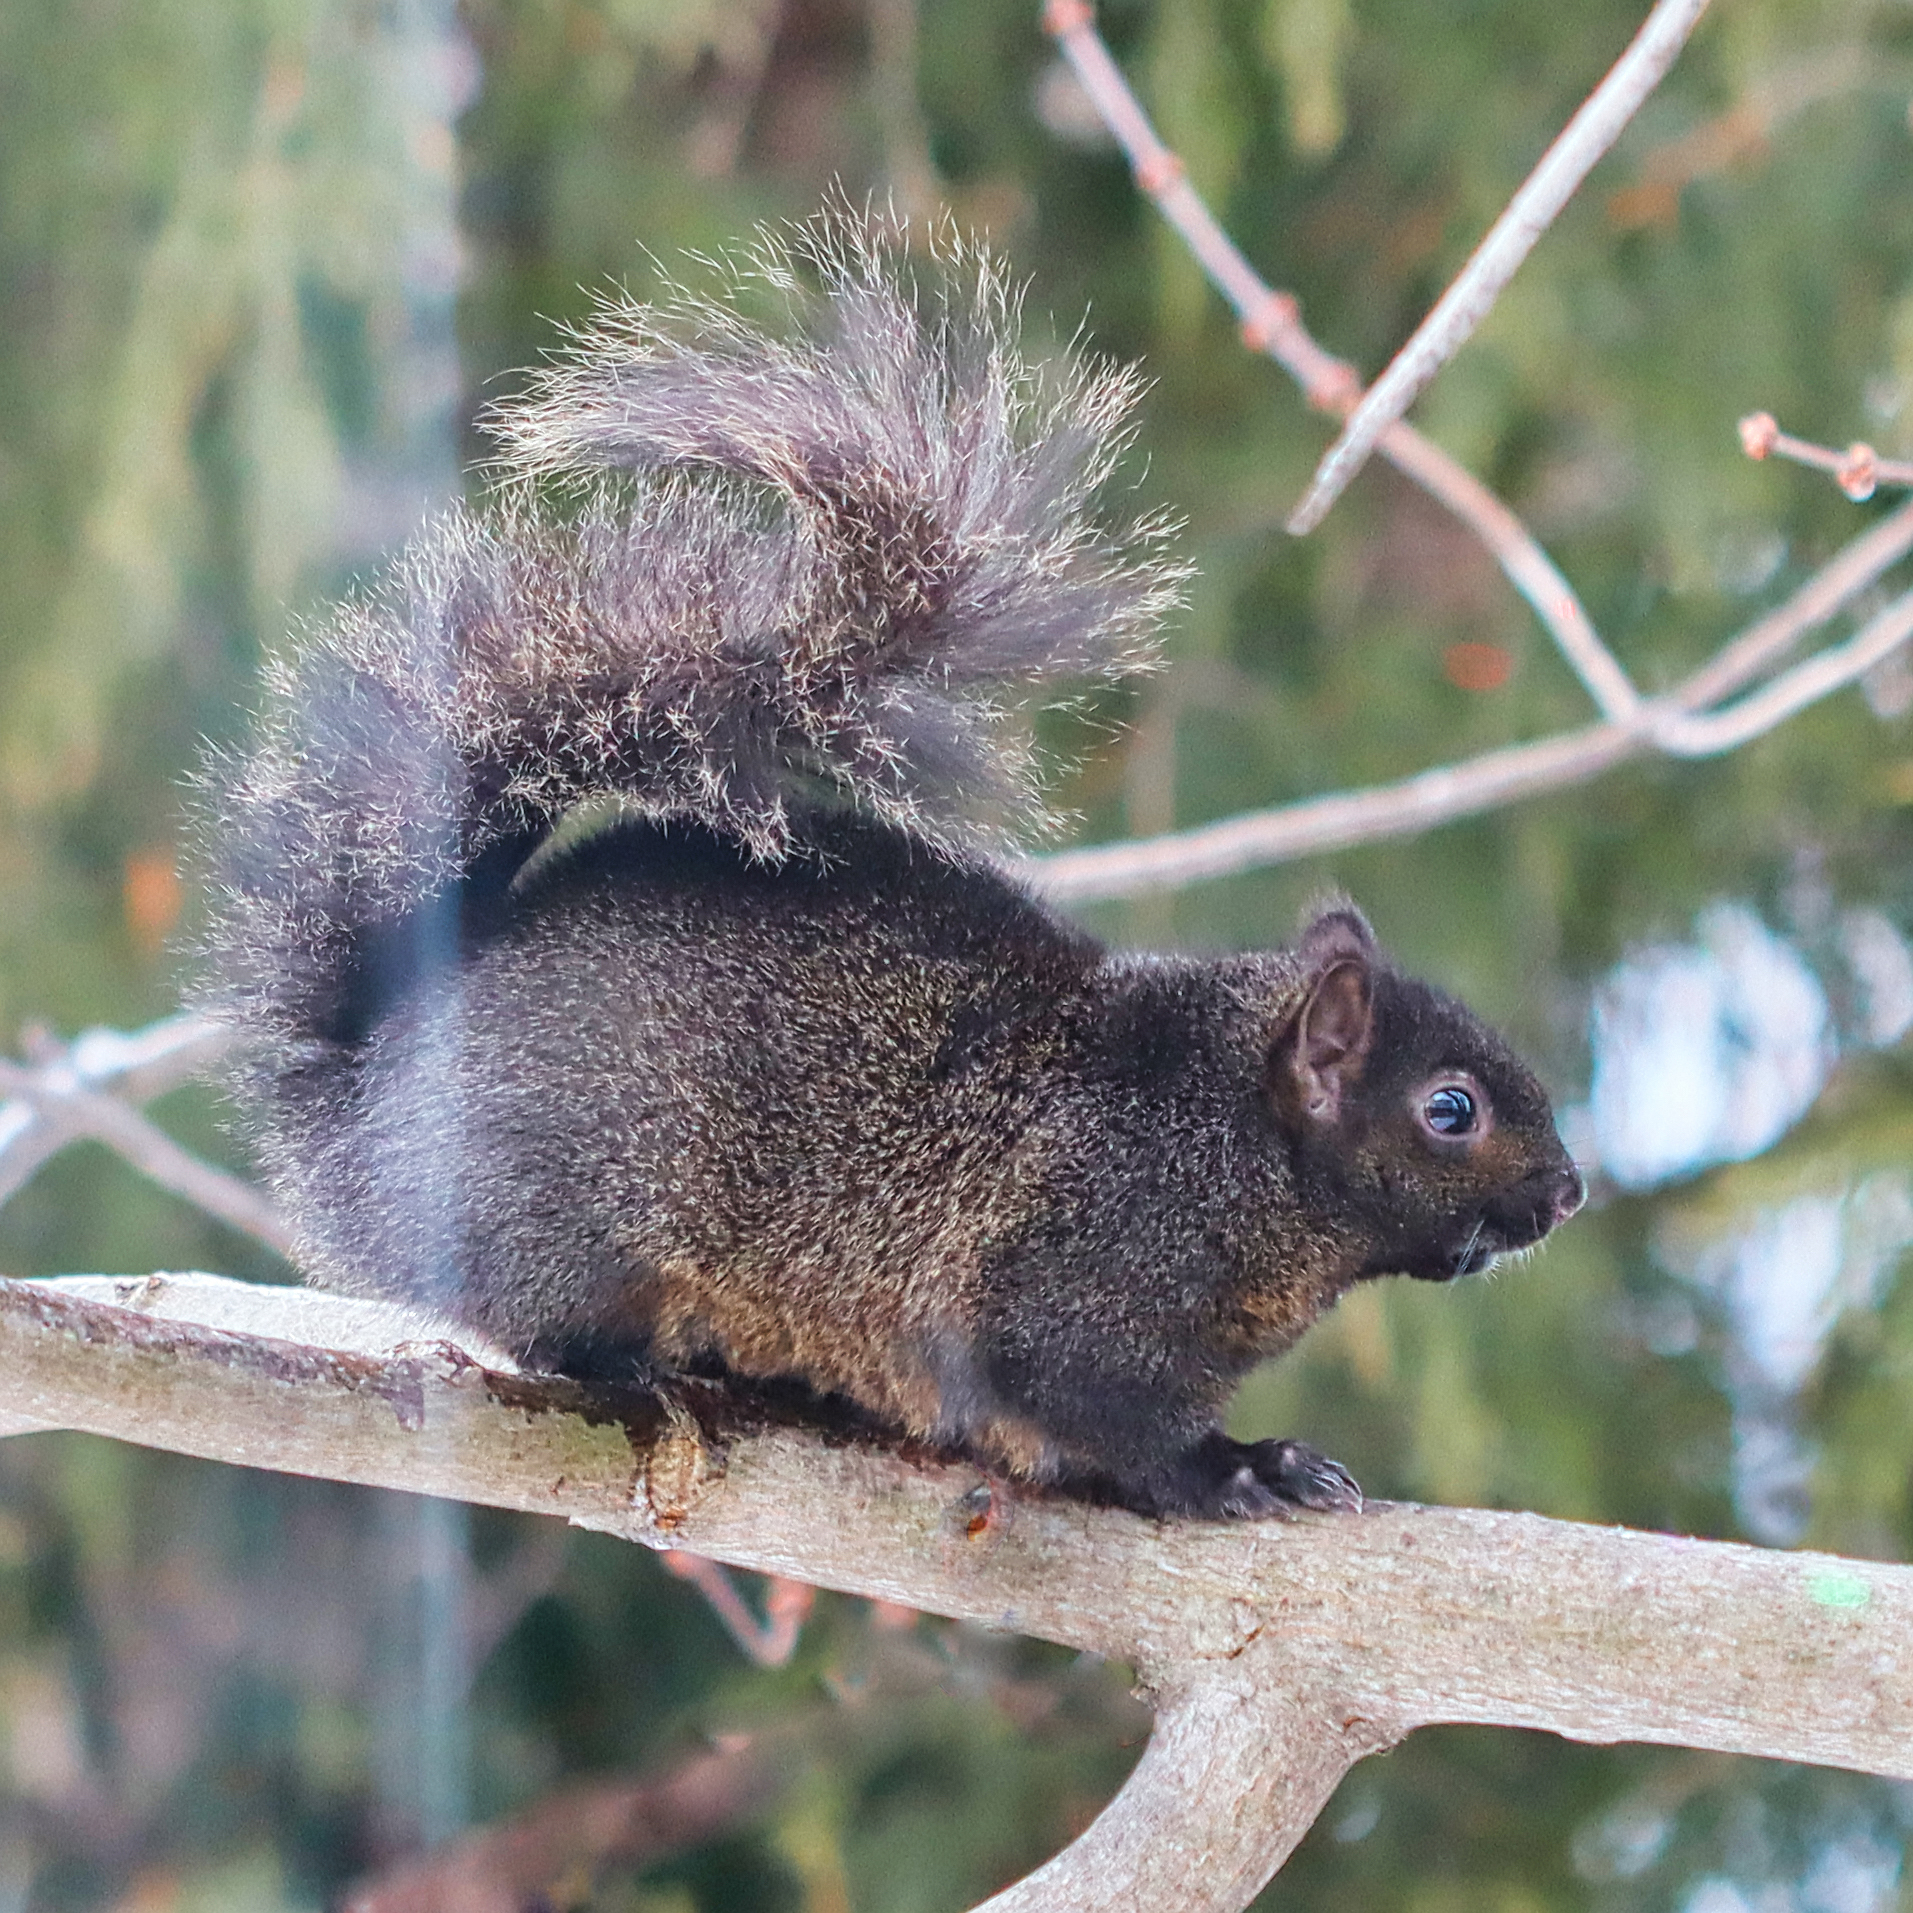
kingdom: Animalia
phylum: Chordata
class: Mammalia
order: Rodentia
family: Sciuridae
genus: Sciurus
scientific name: Sciurus carolinensis
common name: Eastern gray squirrel
